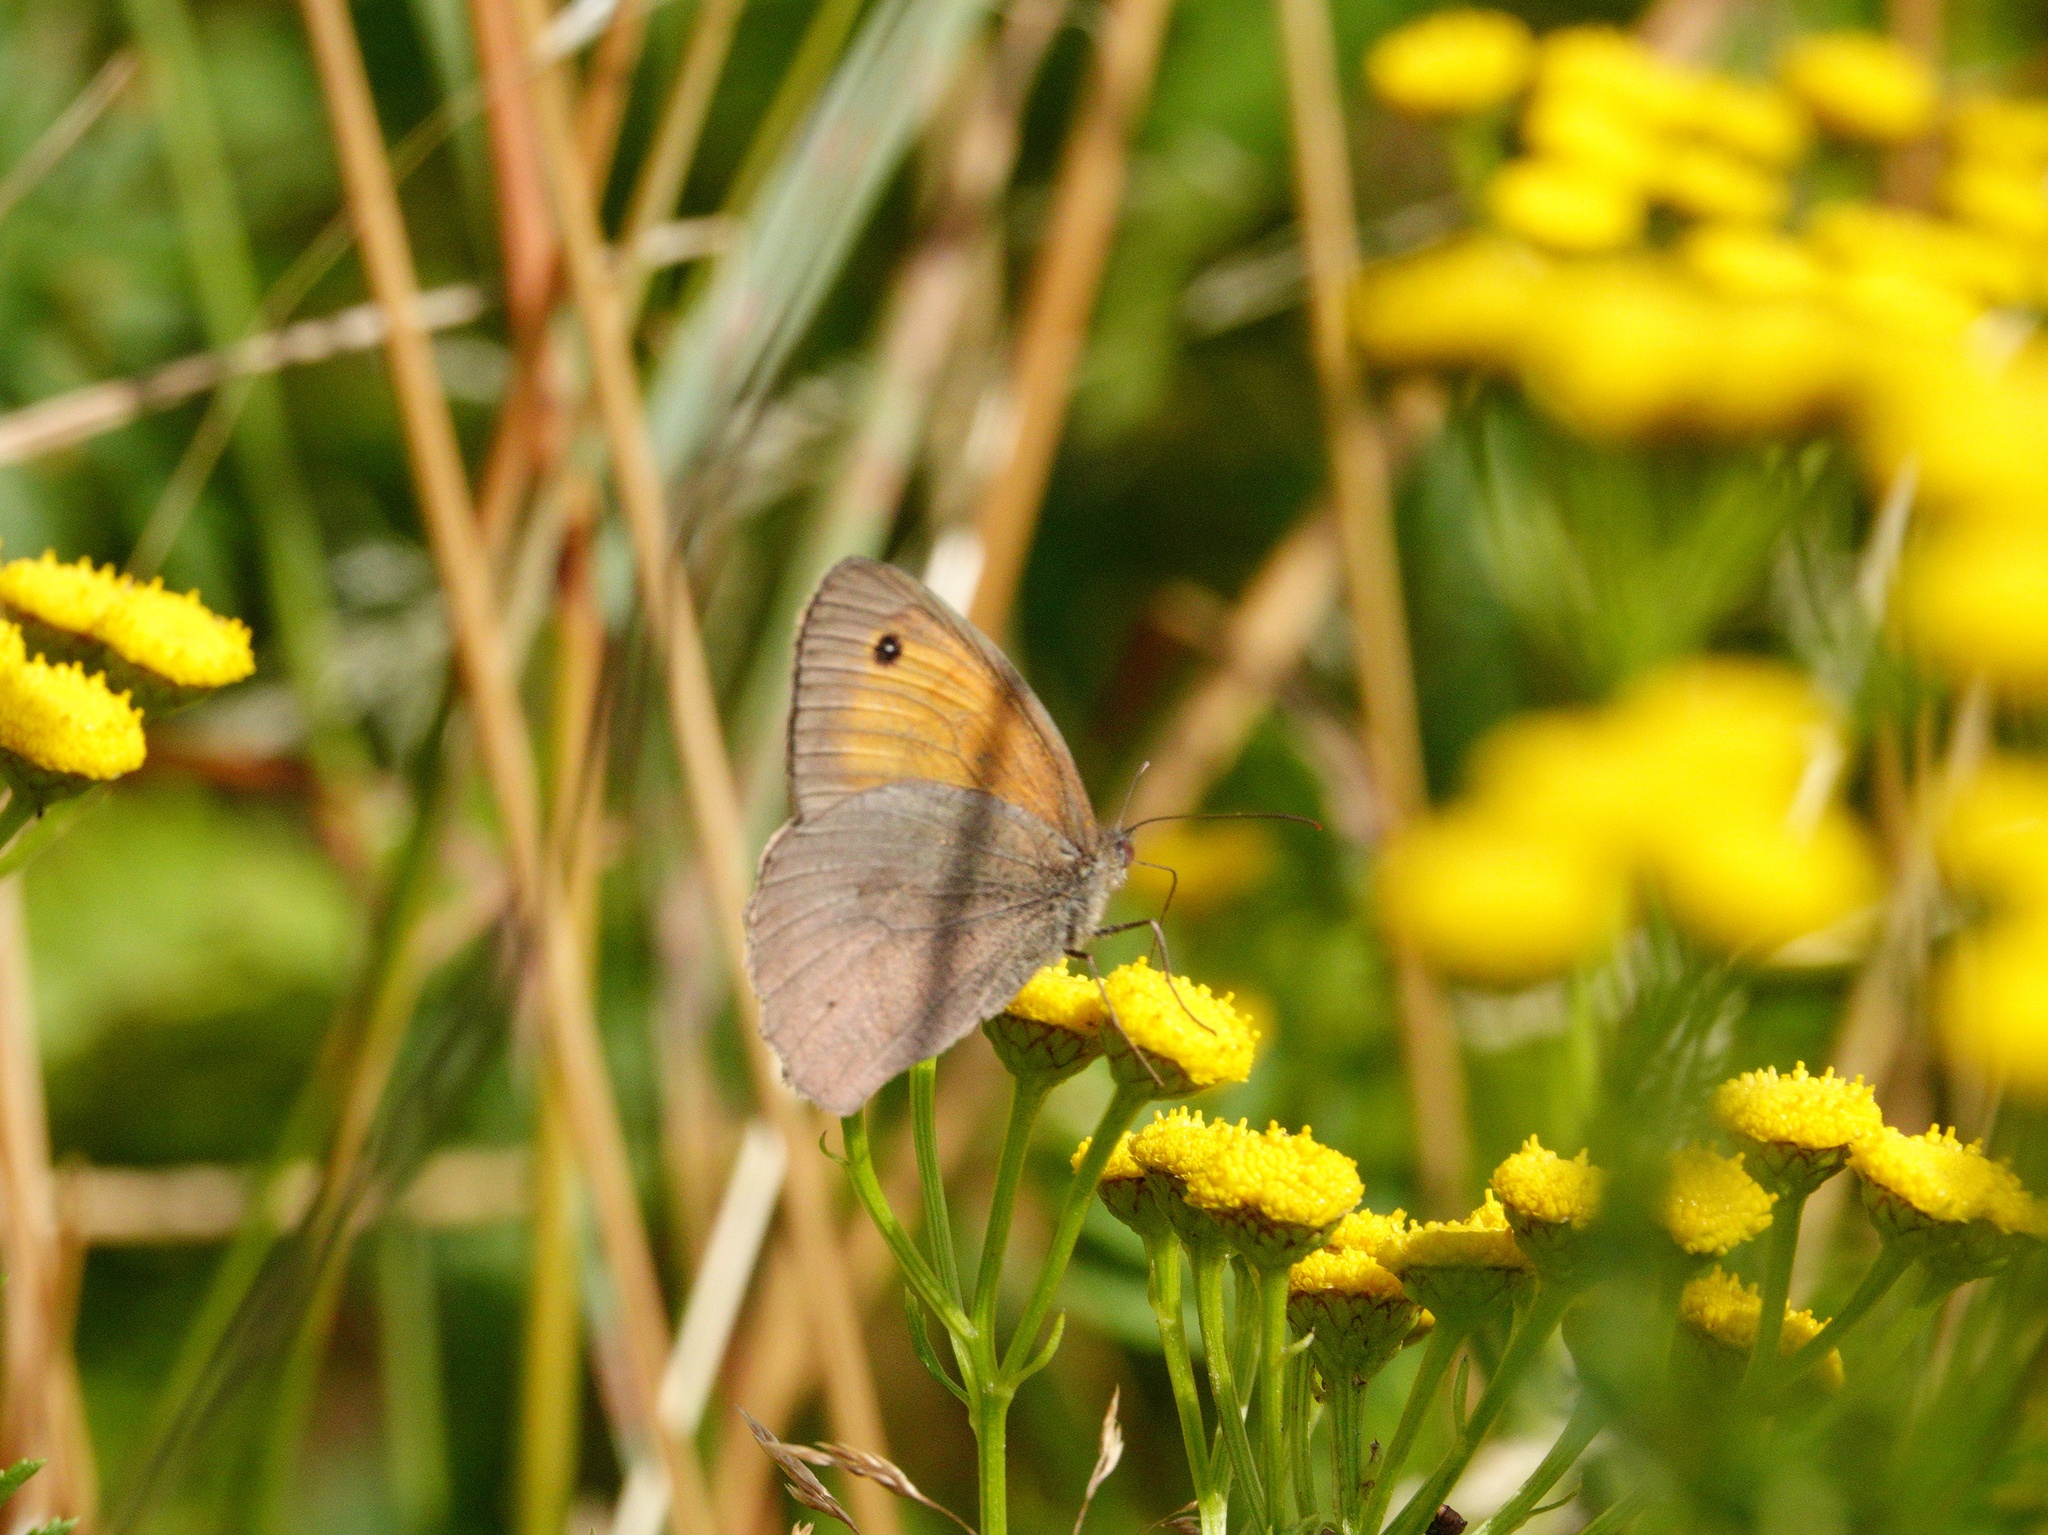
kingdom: Animalia
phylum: Arthropoda
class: Insecta
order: Lepidoptera
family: Nymphalidae
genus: Maniola
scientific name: Maniola jurtina
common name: Meadow brown
